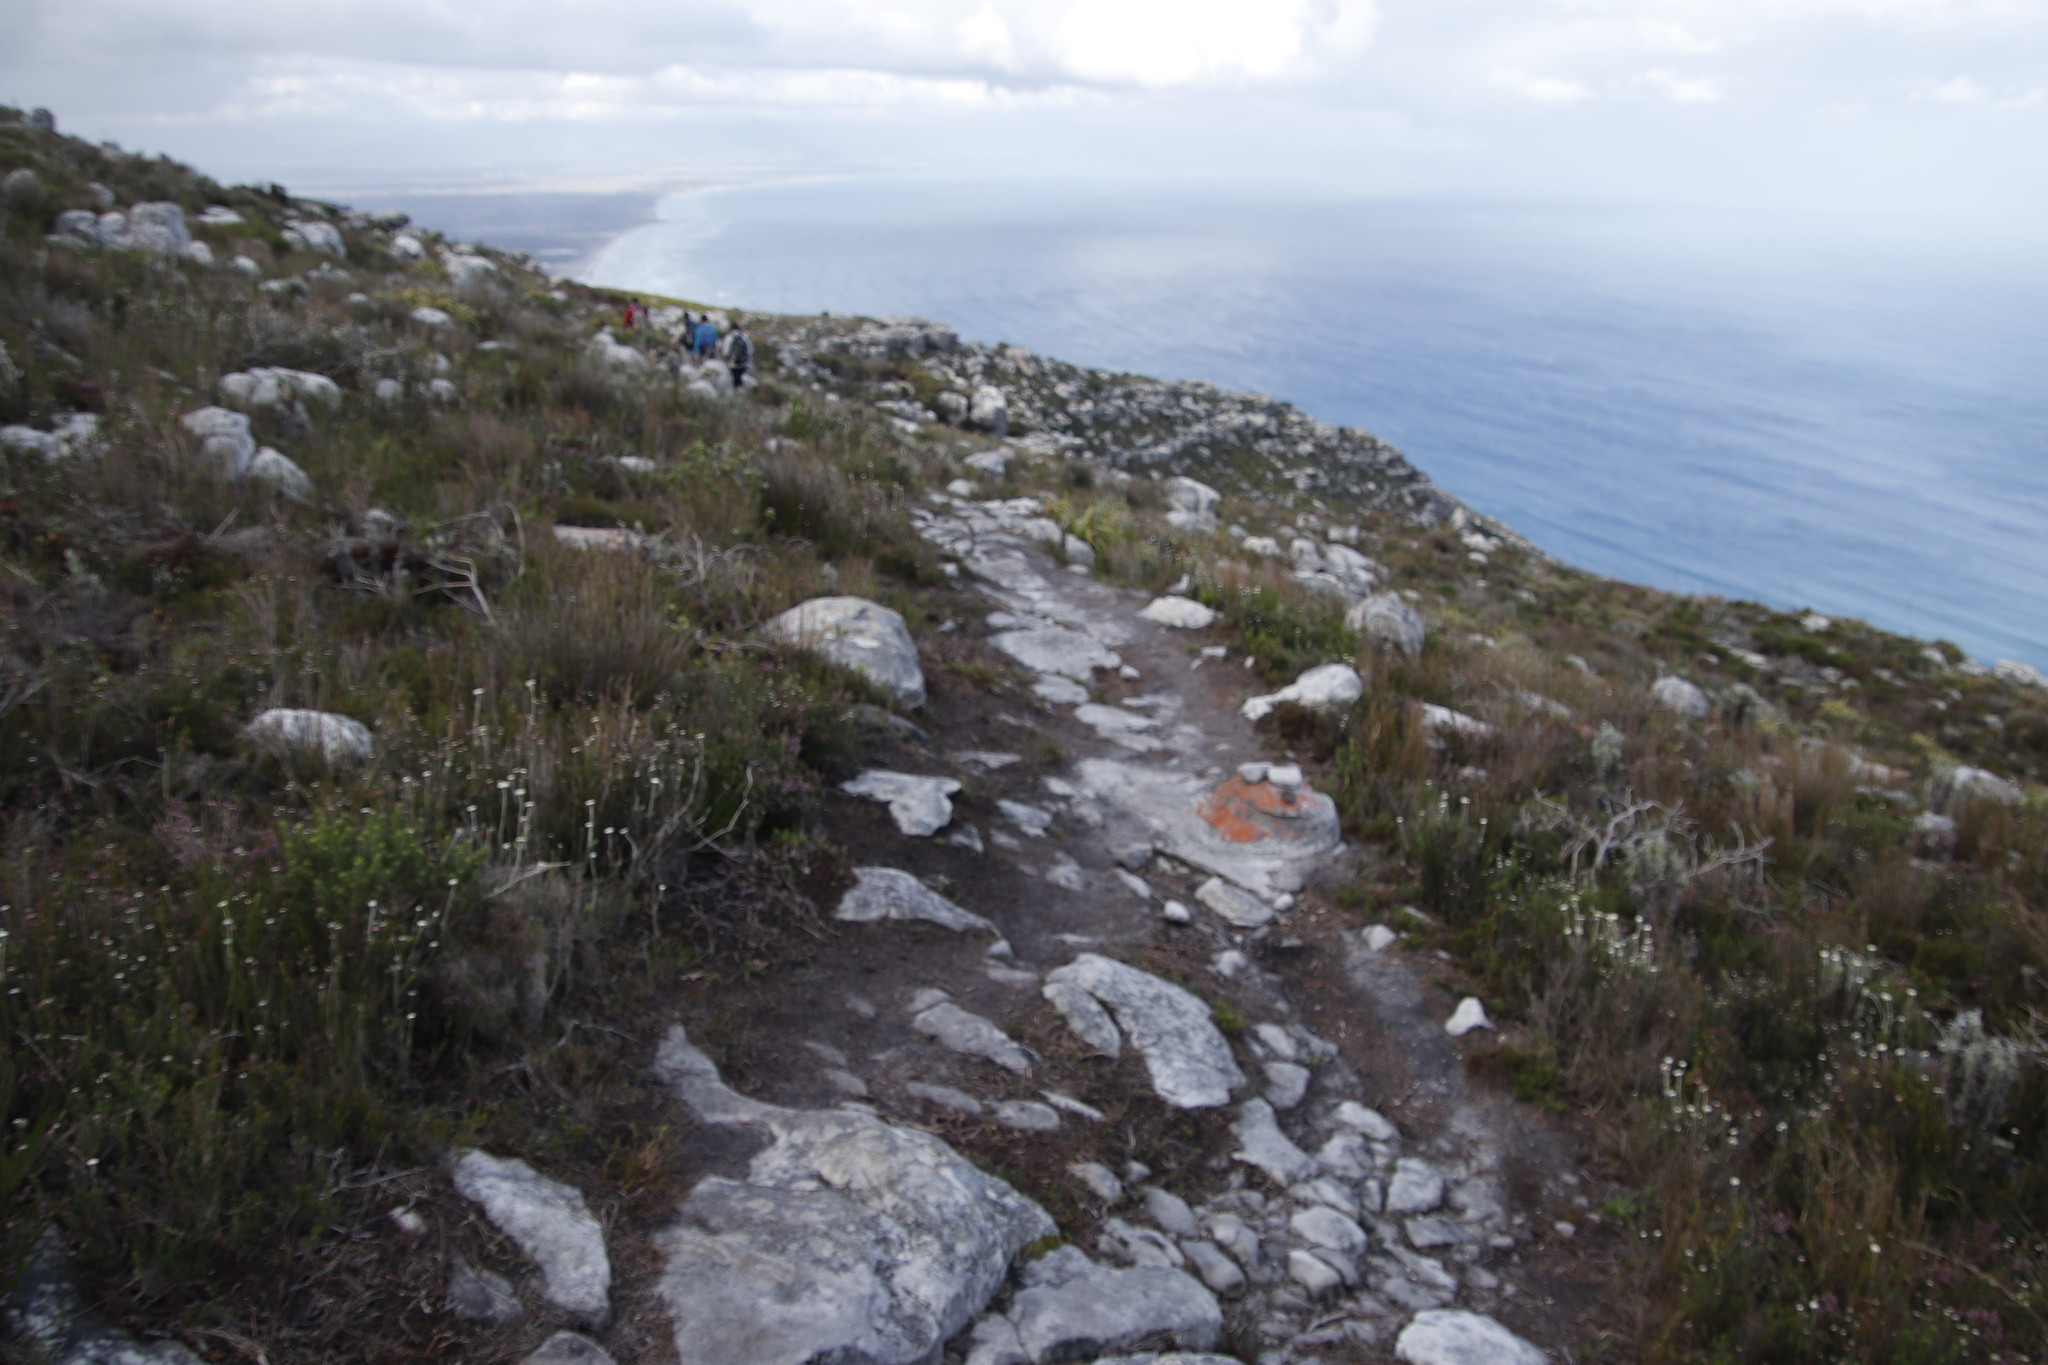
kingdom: Plantae
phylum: Tracheophyta
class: Magnoliopsida
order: Asterales
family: Asteraceae
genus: Anaxeton
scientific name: Anaxeton arborescens
